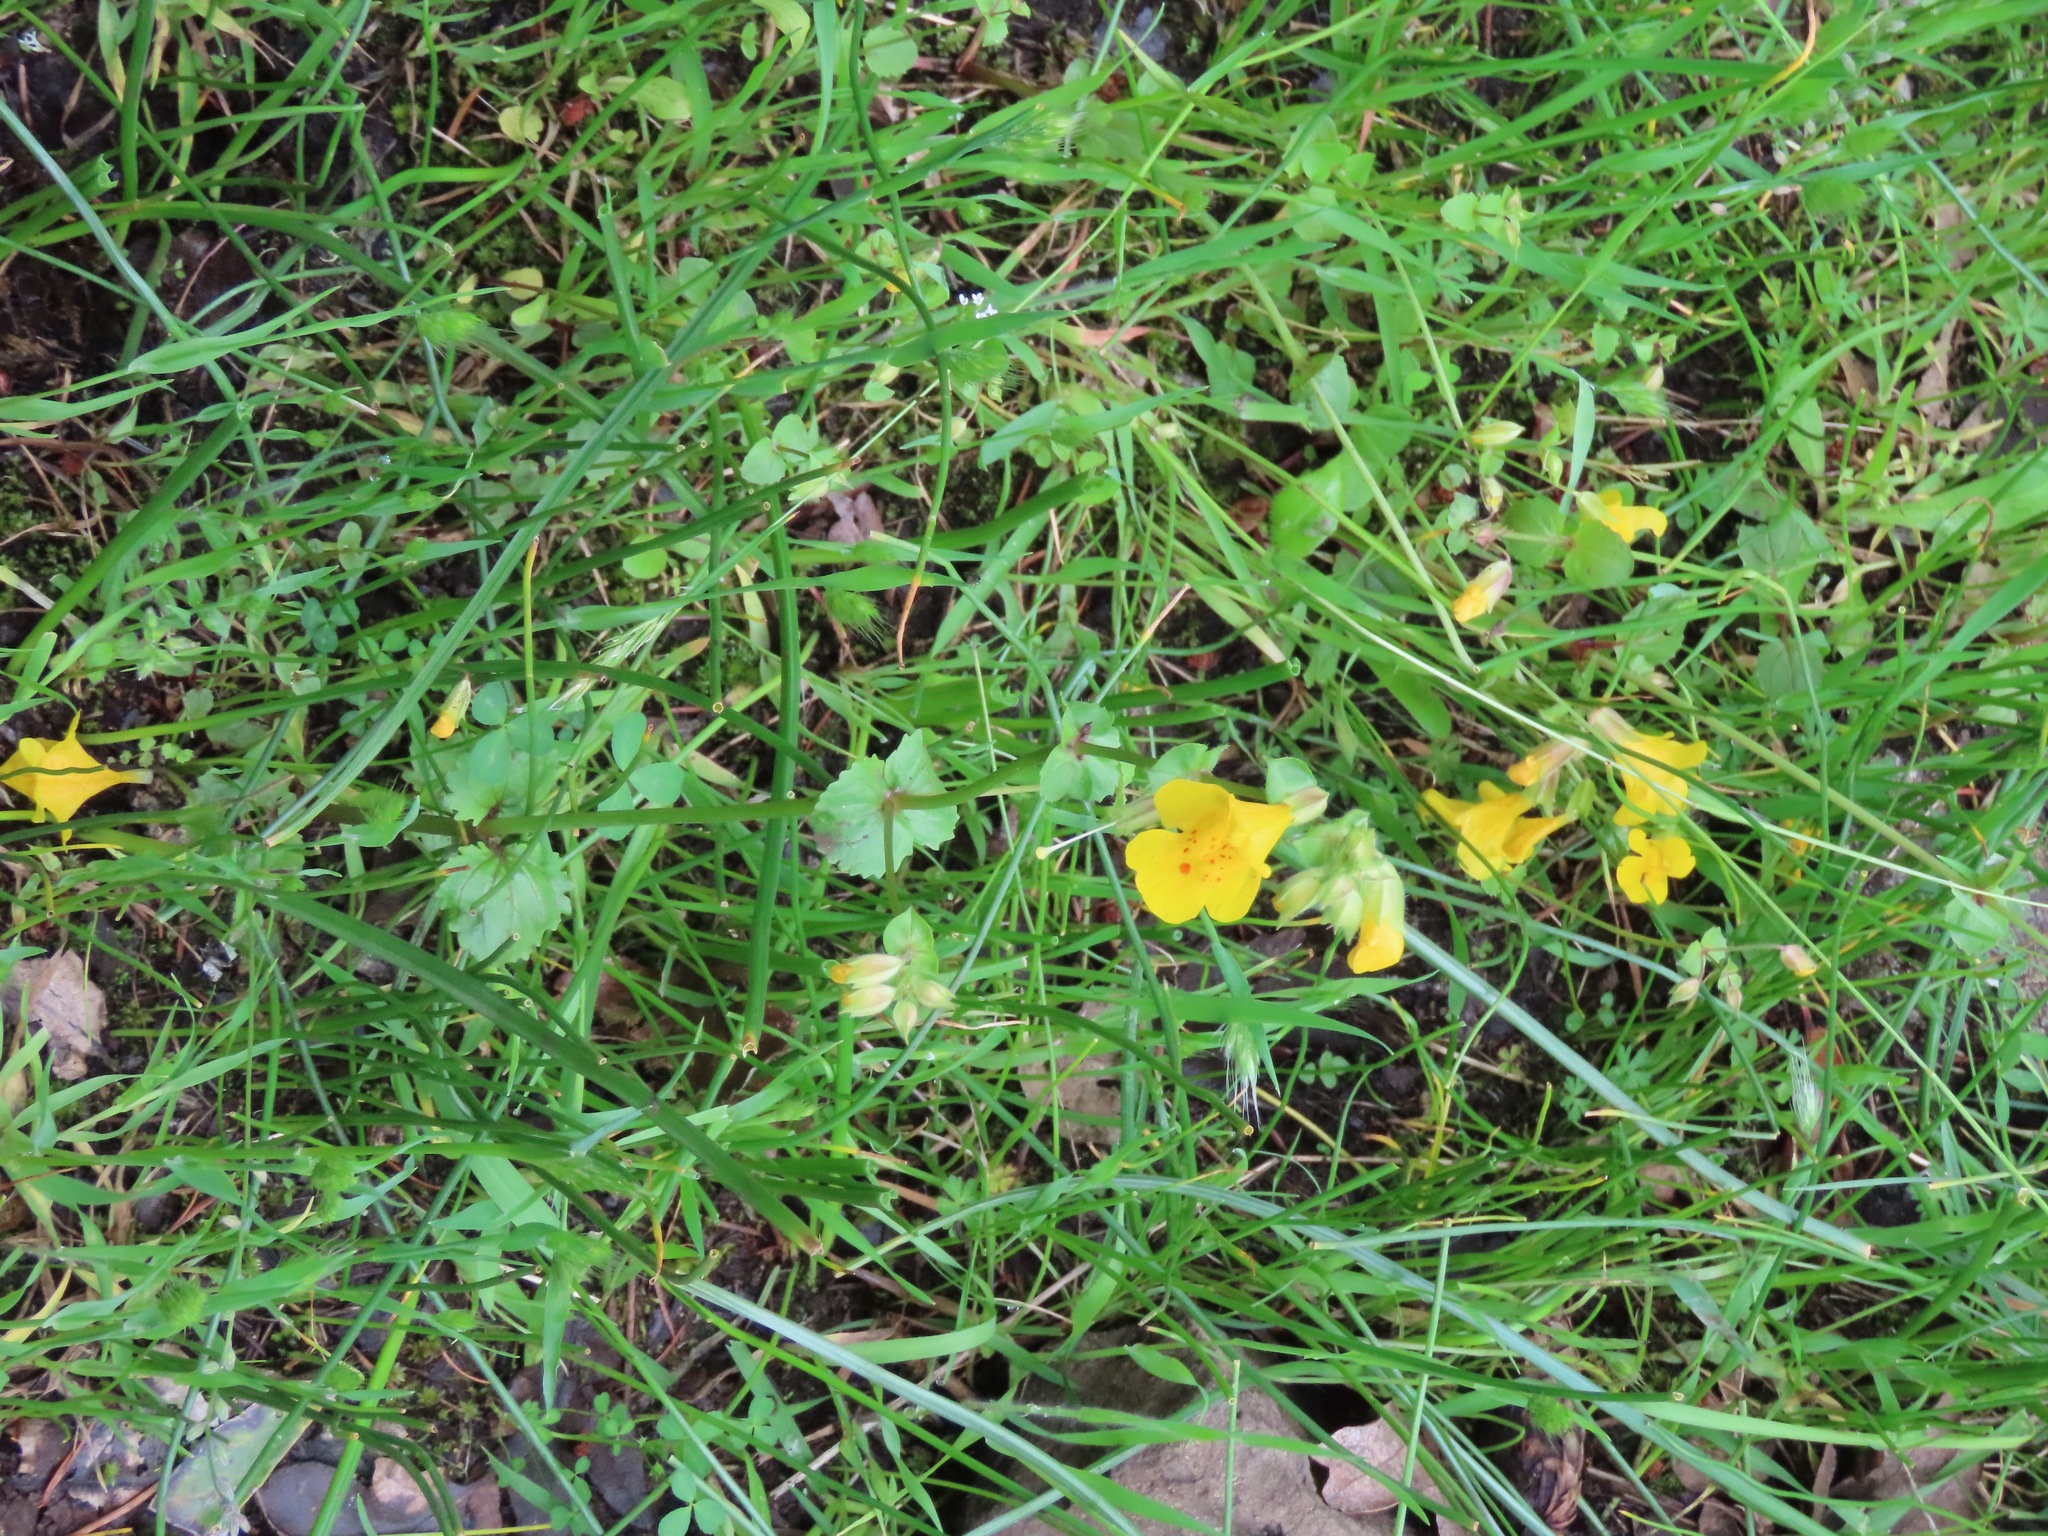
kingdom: Plantae
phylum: Tracheophyta
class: Magnoliopsida
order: Lamiales
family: Phrymaceae
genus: Erythranthe
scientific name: Erythranthe guttata
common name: Monkeyflower
